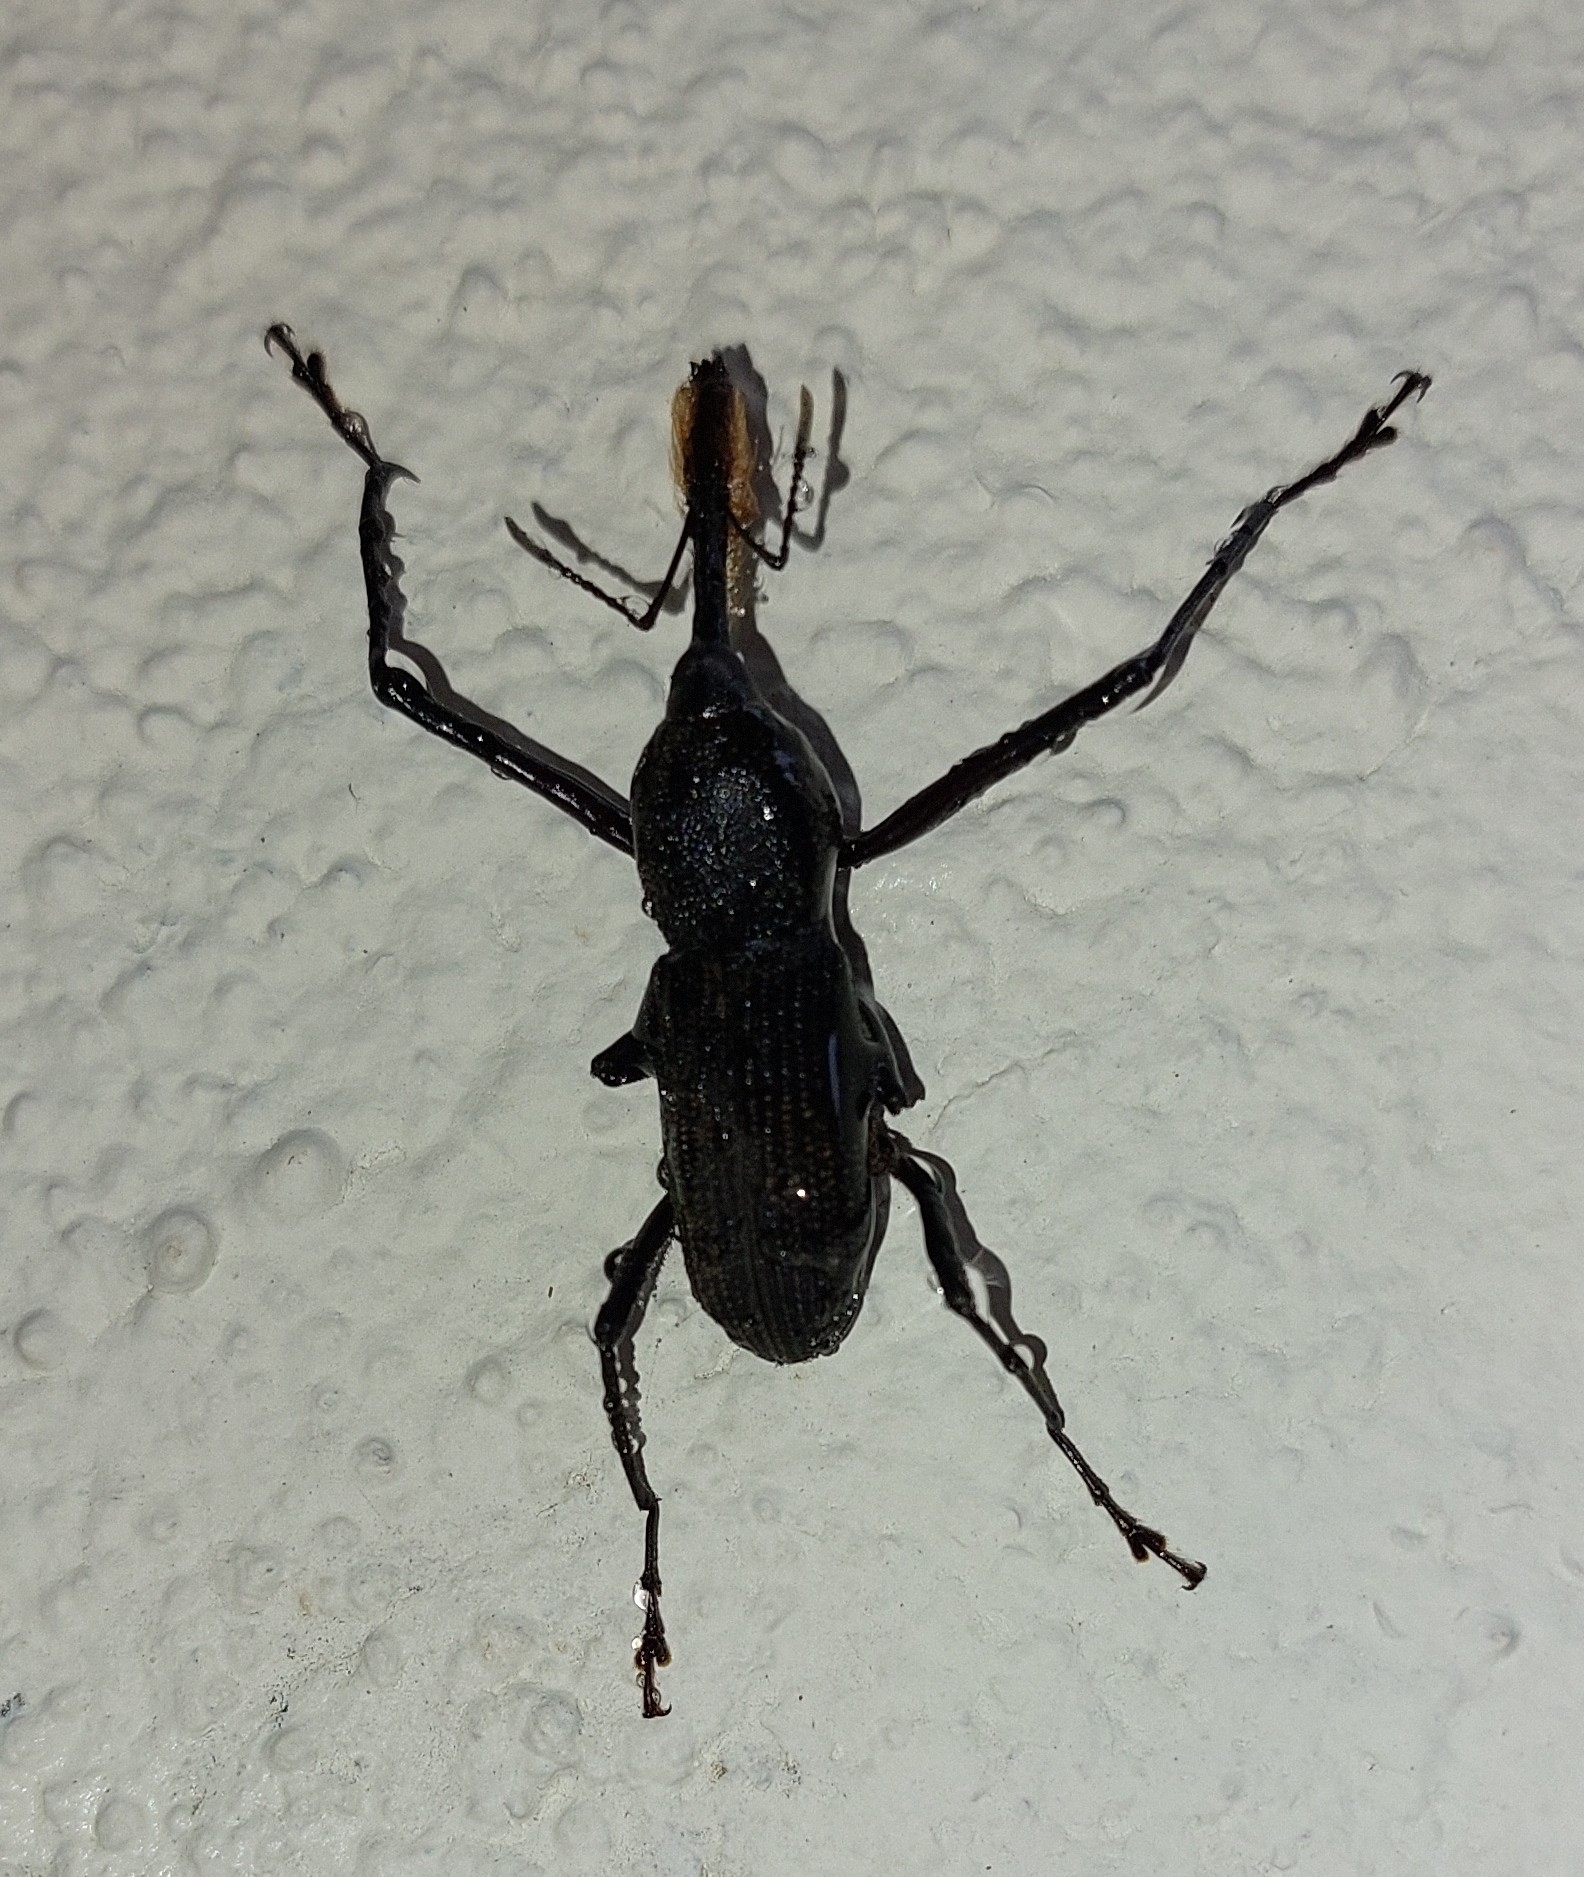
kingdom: Animalia
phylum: Arthropoda
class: Insecta
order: Coleoptera
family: Dryophthoridae
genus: Rhinostomus
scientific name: Rhinostomus barbirostris
